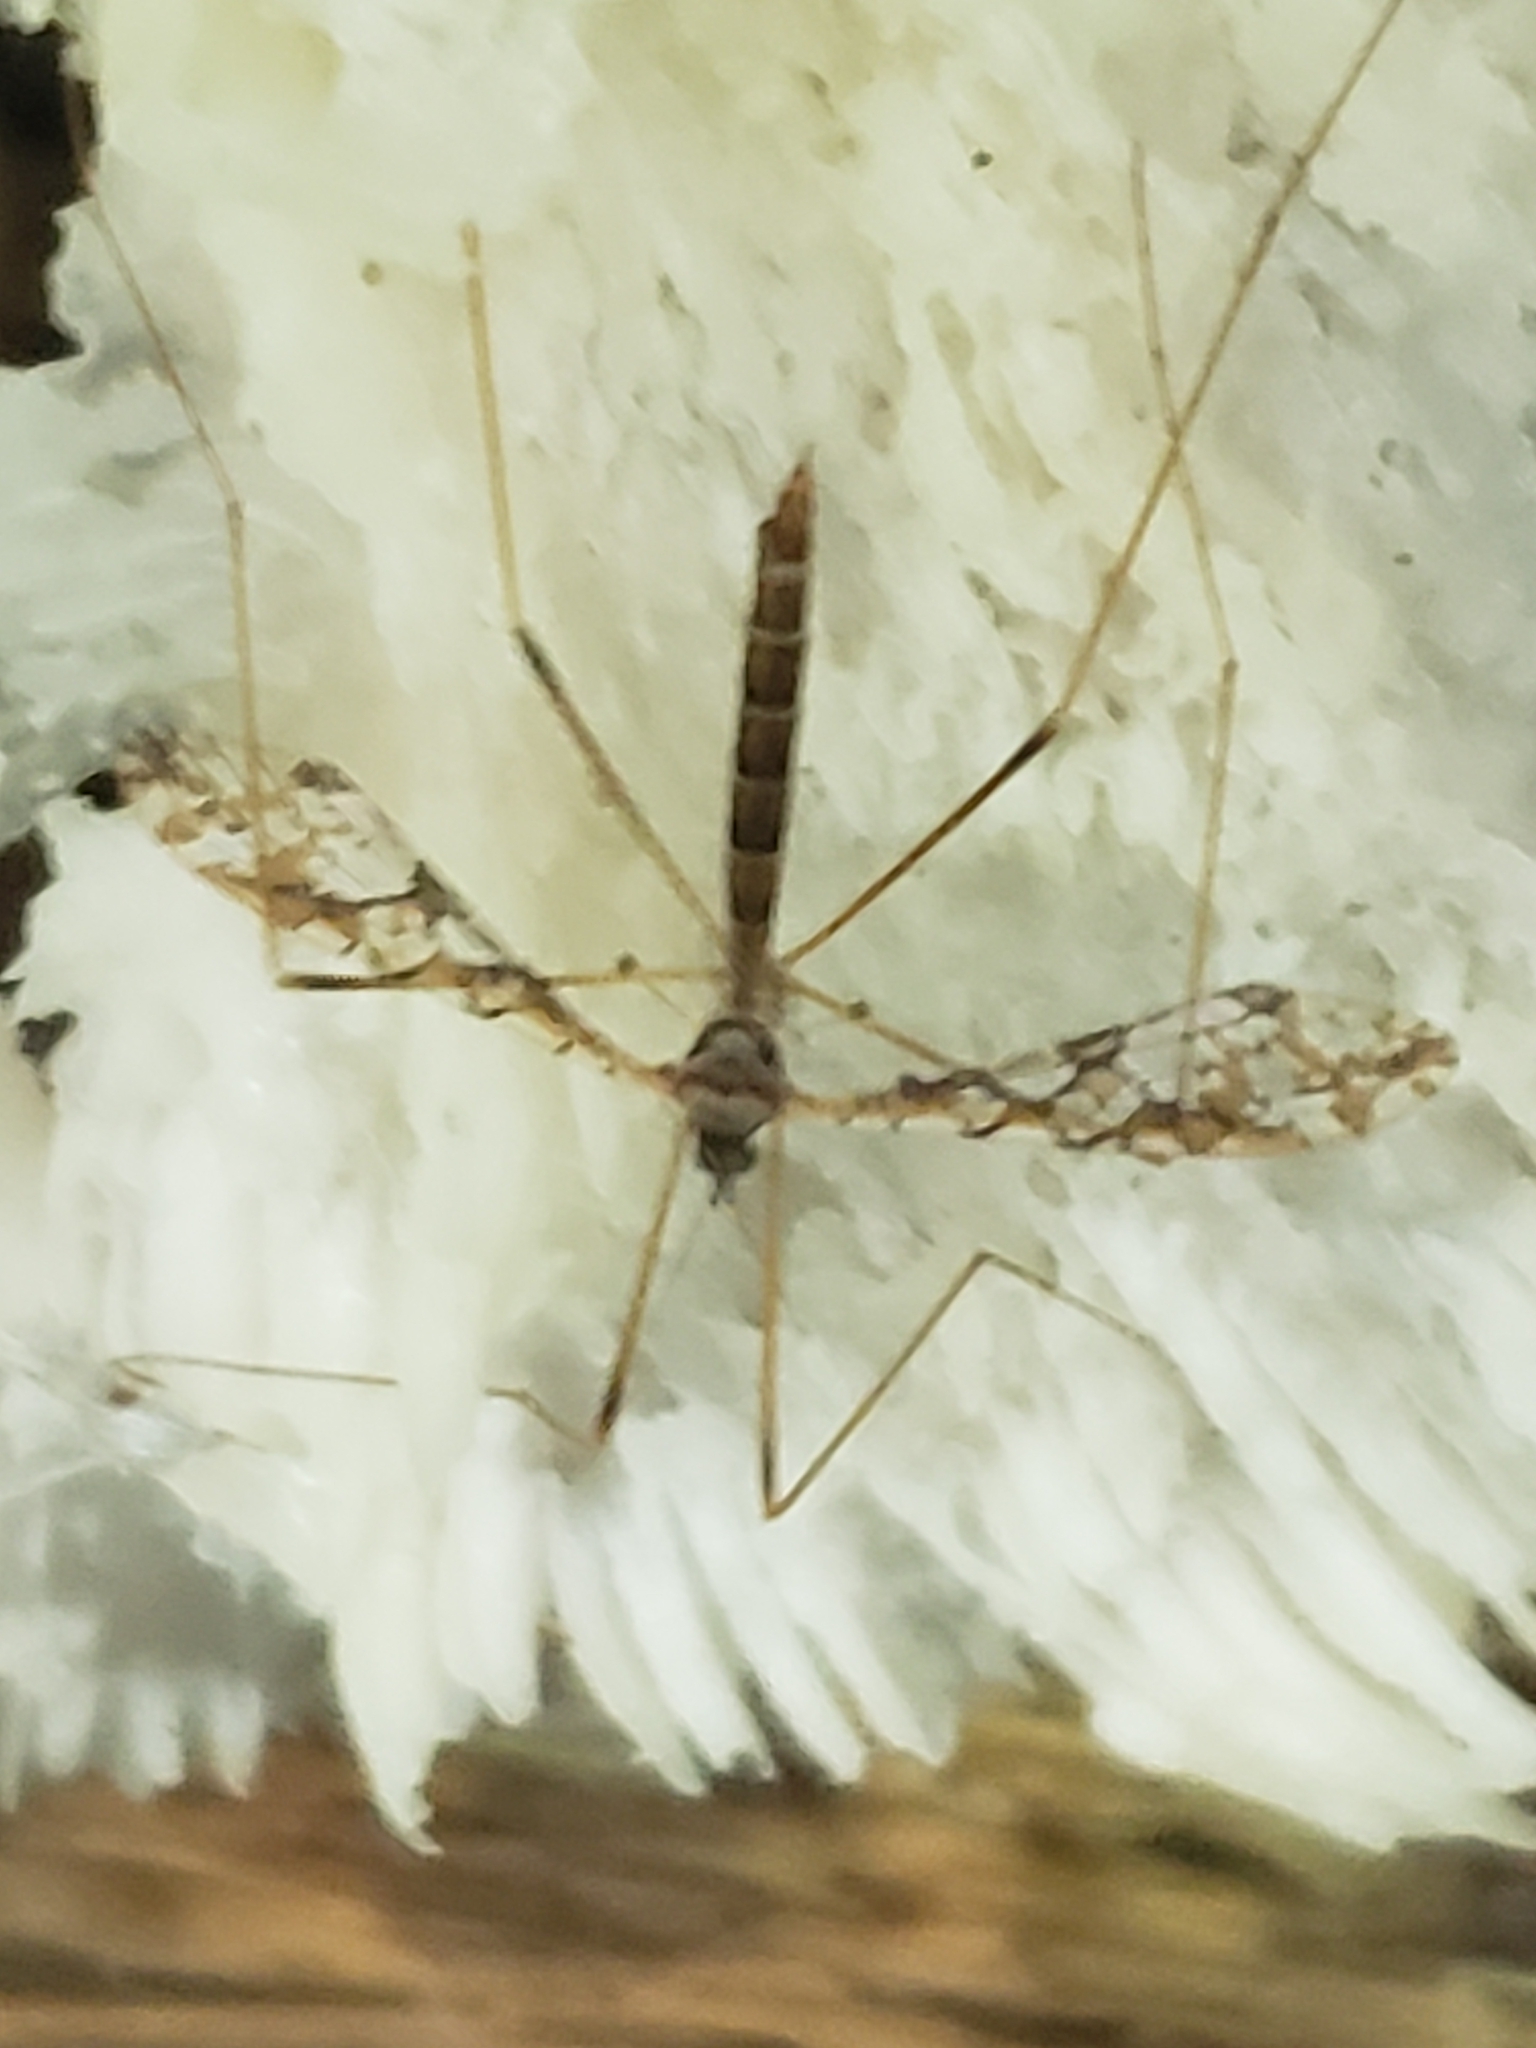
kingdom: Animalia
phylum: Arthropoda
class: Insecta
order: Diptera
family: Limoniidae
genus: Epiphragma
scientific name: Epiphragma solatrix
